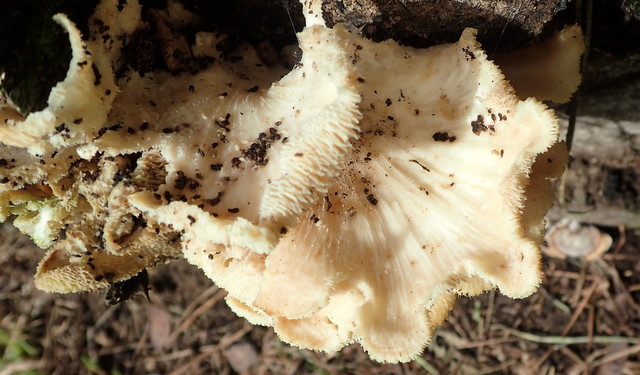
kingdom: Fungi
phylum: Basidiomycota
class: Agaricomycetes
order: Polyporales
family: Polyporaceae
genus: Favolus
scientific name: Favolus tenuiculus
